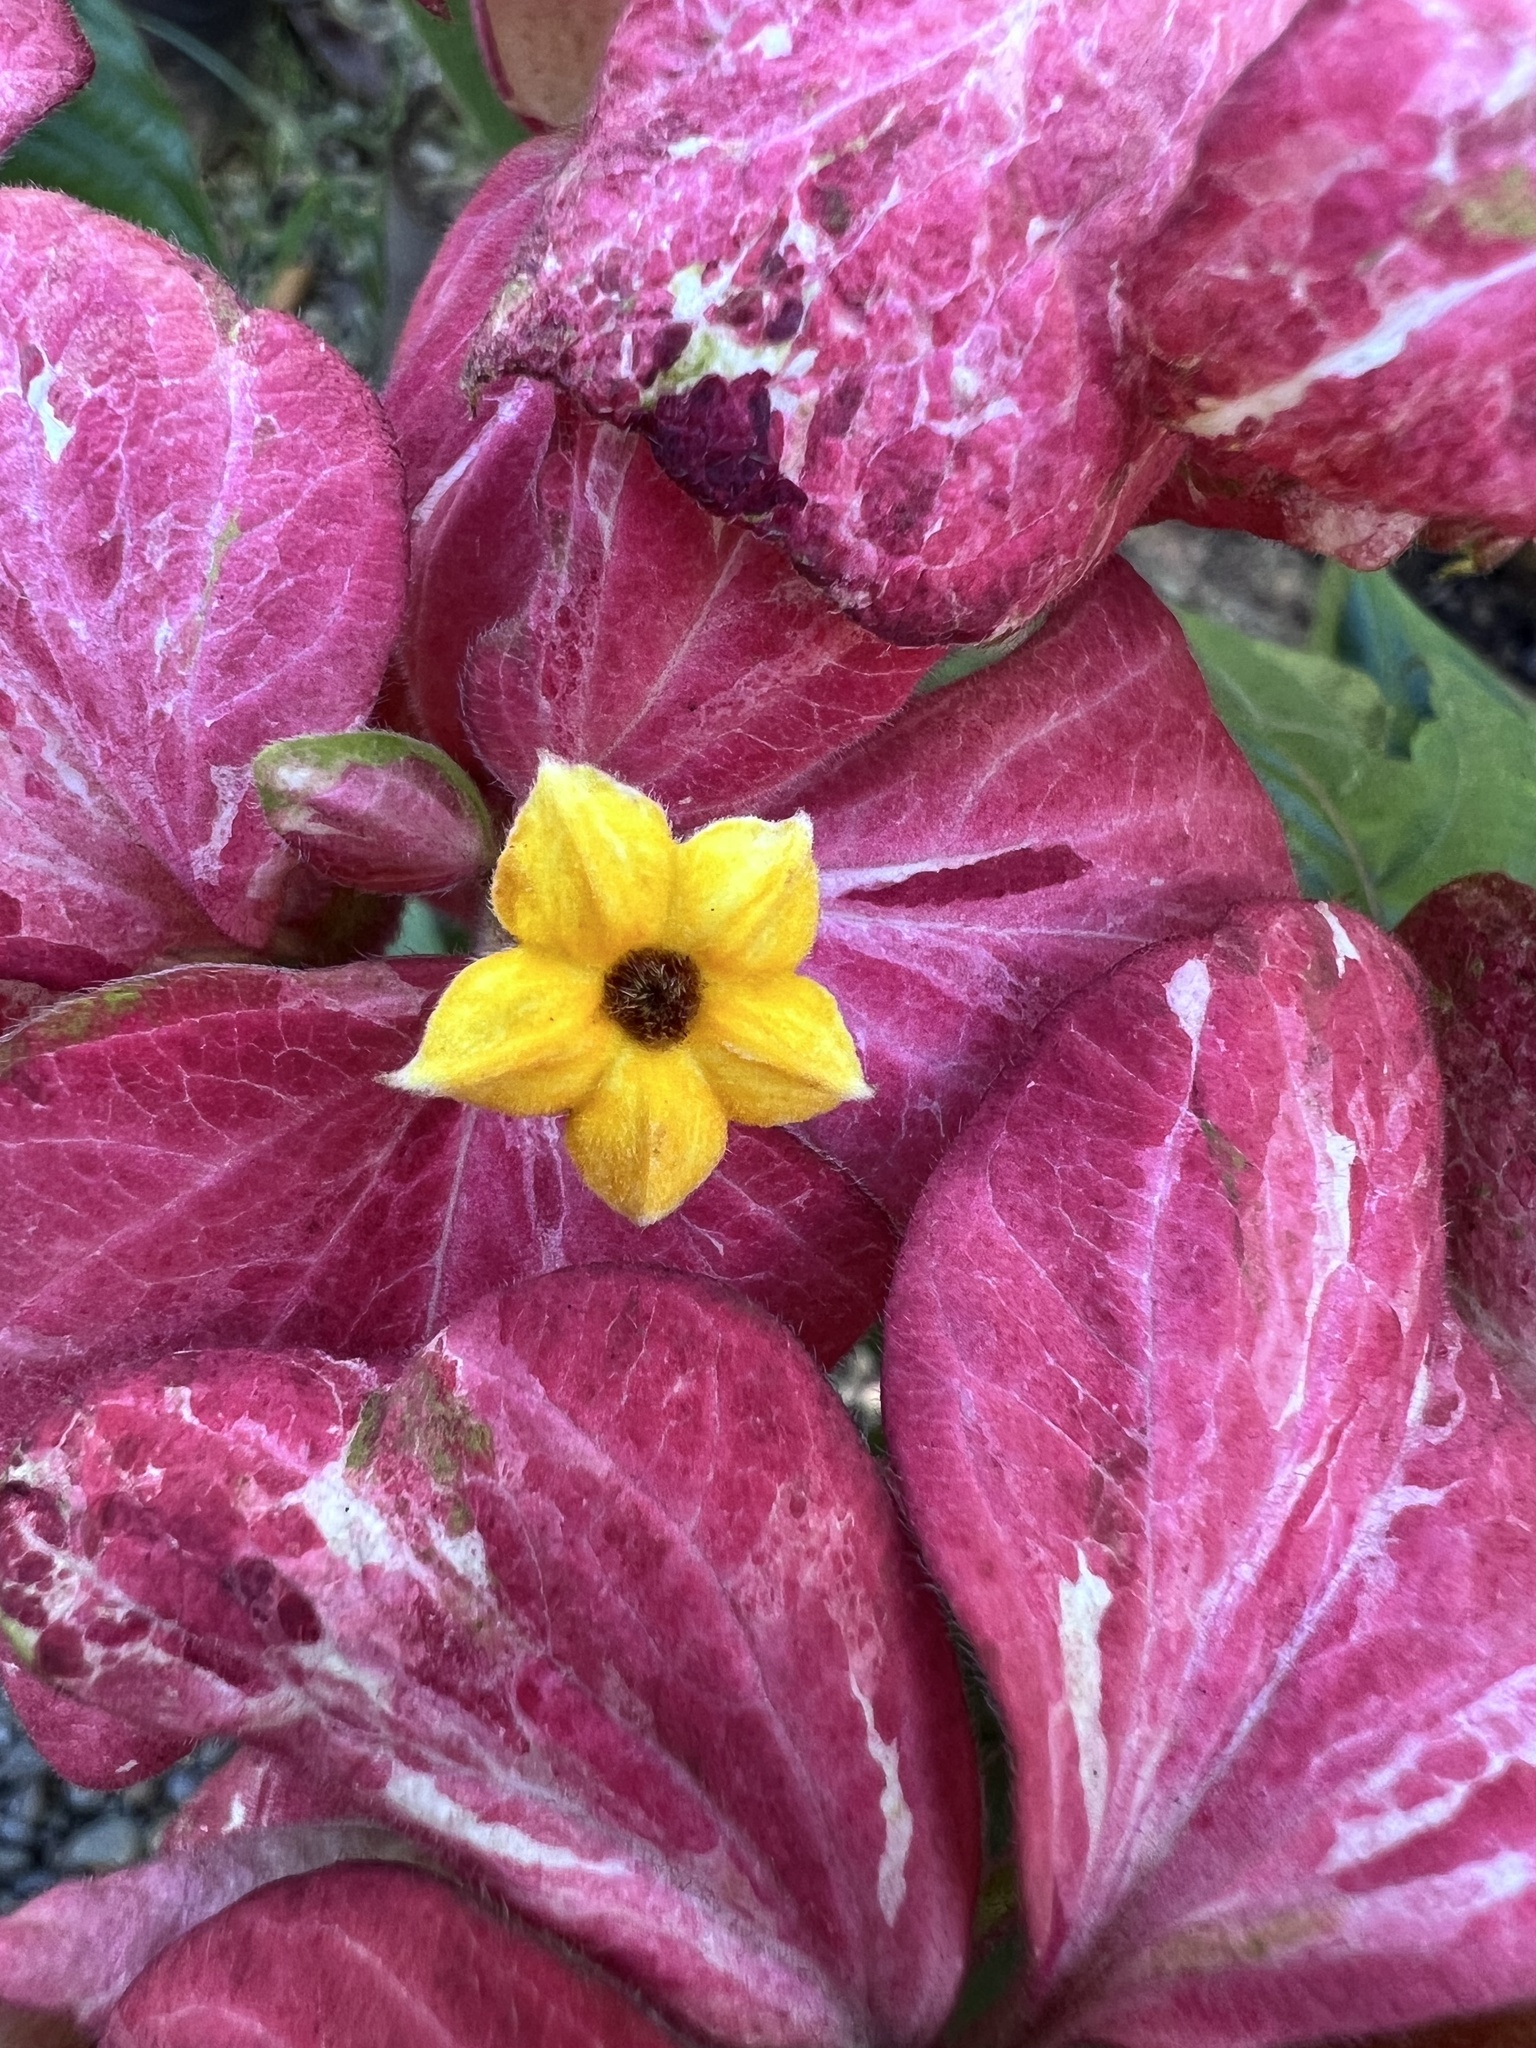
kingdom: Plantae
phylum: Tracheophyta
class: Magnoliopsida
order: Gentianales
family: Rubiaceae
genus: Mussaenda
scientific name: Mussaenda philippica
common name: Philippine mussaenda
